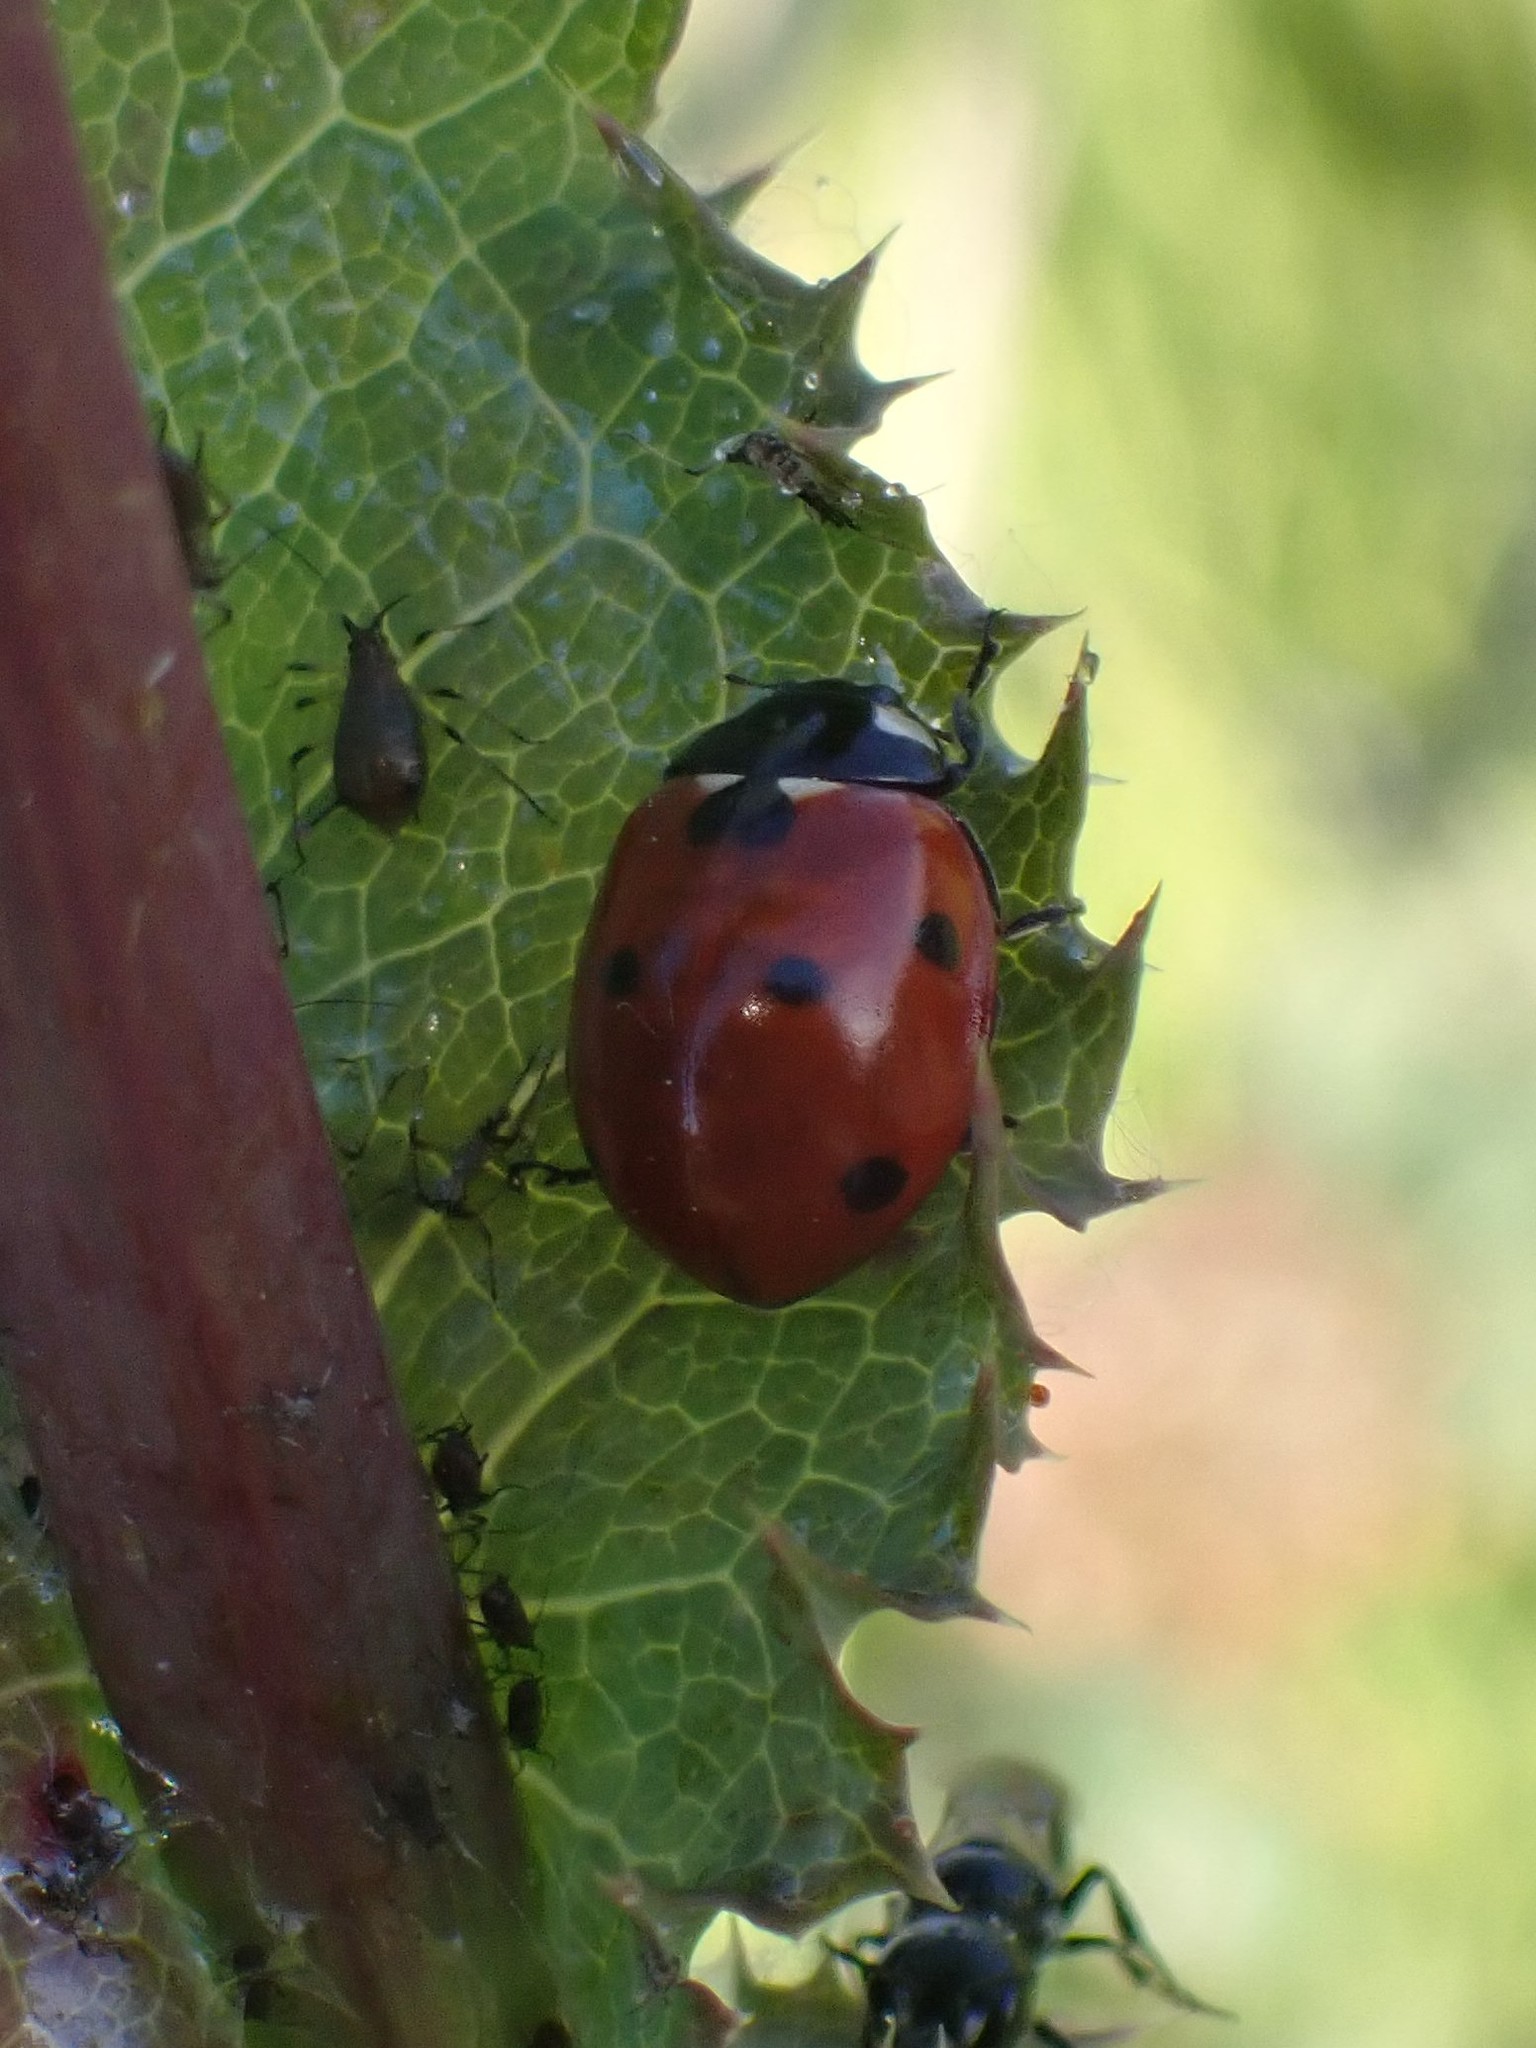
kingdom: Animalia
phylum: Arthropoda
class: Insecta
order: Coleoptera
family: Coccinellidae
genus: Coccinella
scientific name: Coccinella septempunctata
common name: Sevenspotted lady beetle
